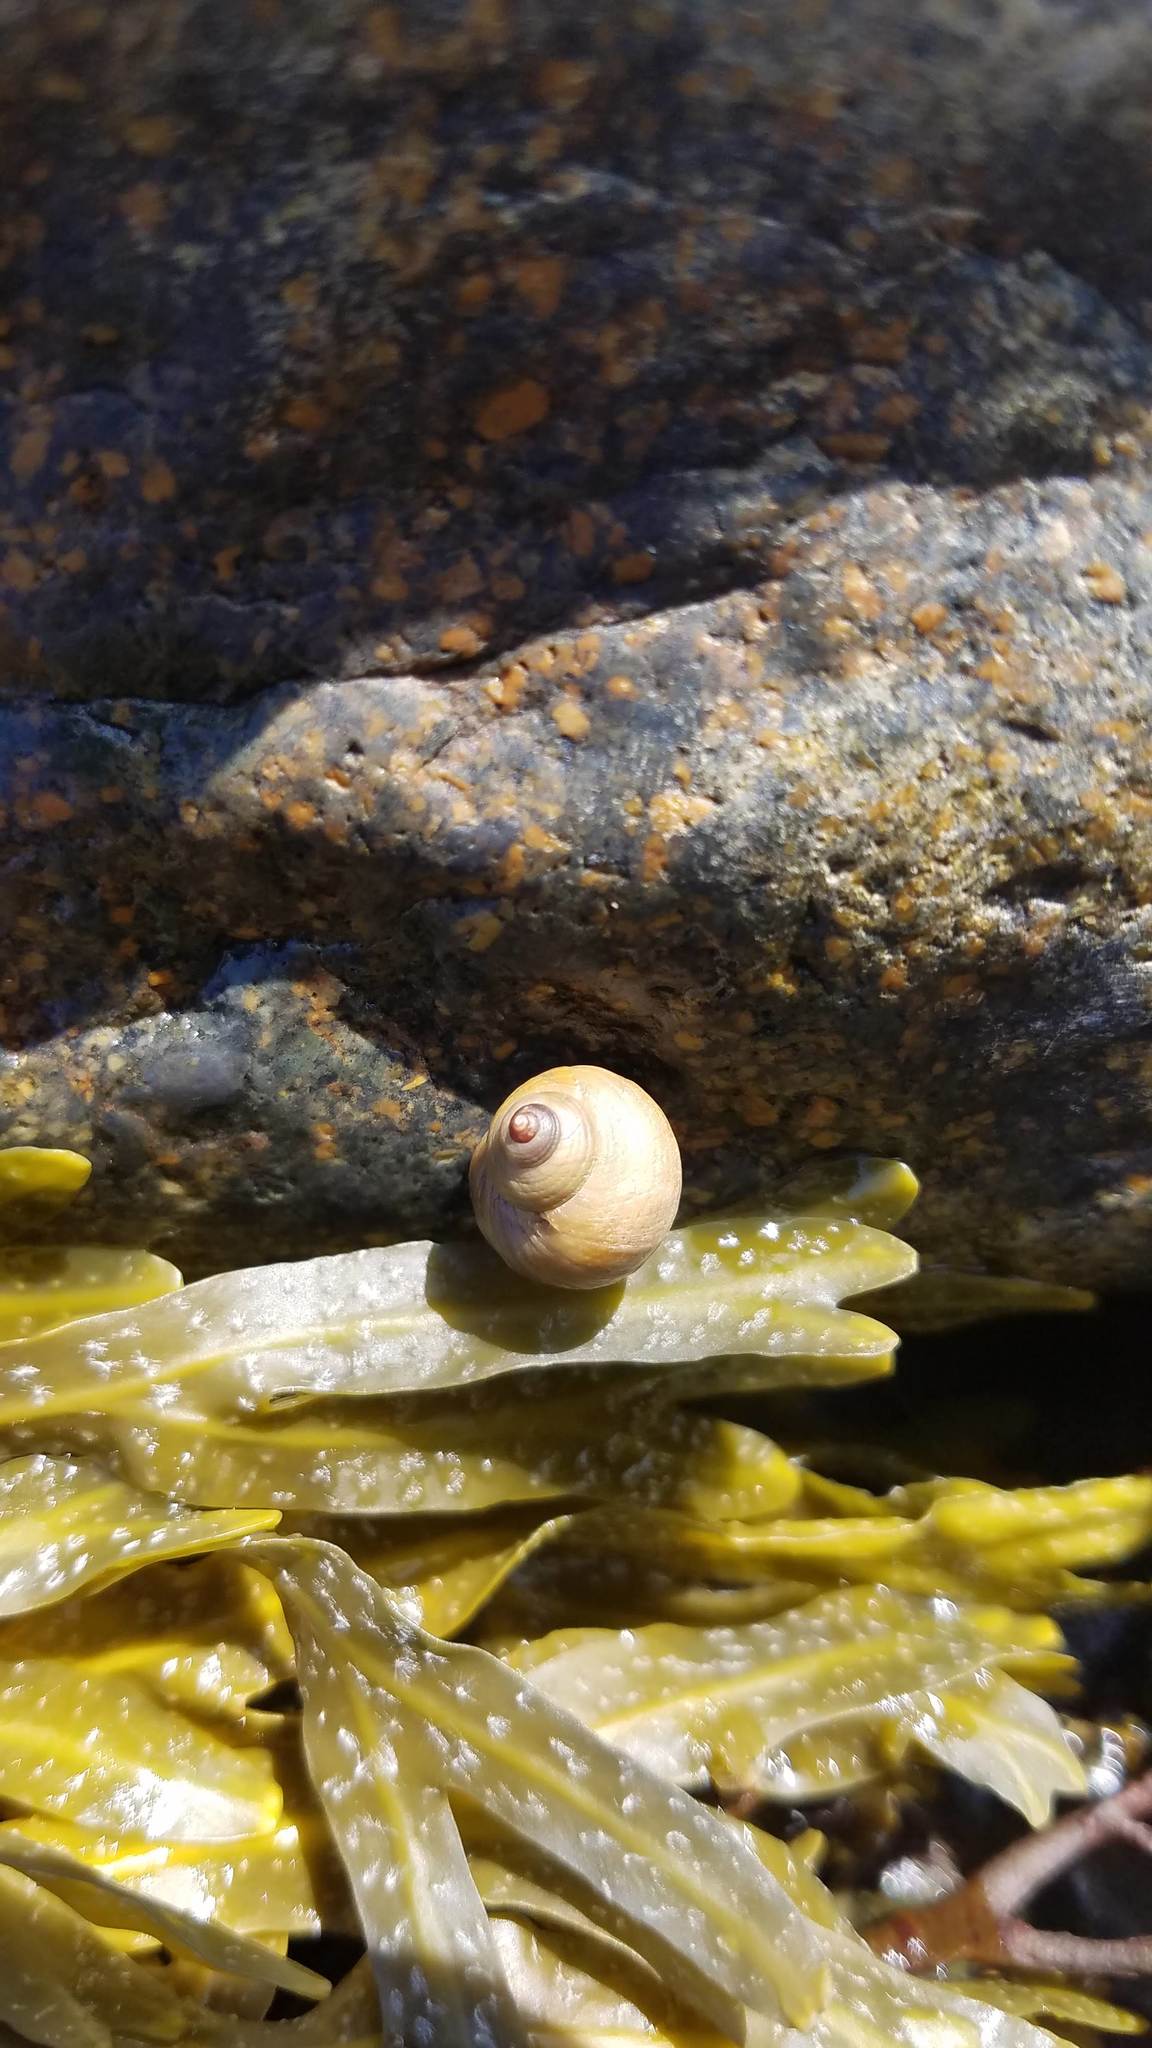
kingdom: Animalia
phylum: Mollusca
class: Gastropoda
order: Littorinimorpha
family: Littorinidae
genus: Littorina
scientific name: Littorina saxatilis
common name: Black-lined periwinkle
